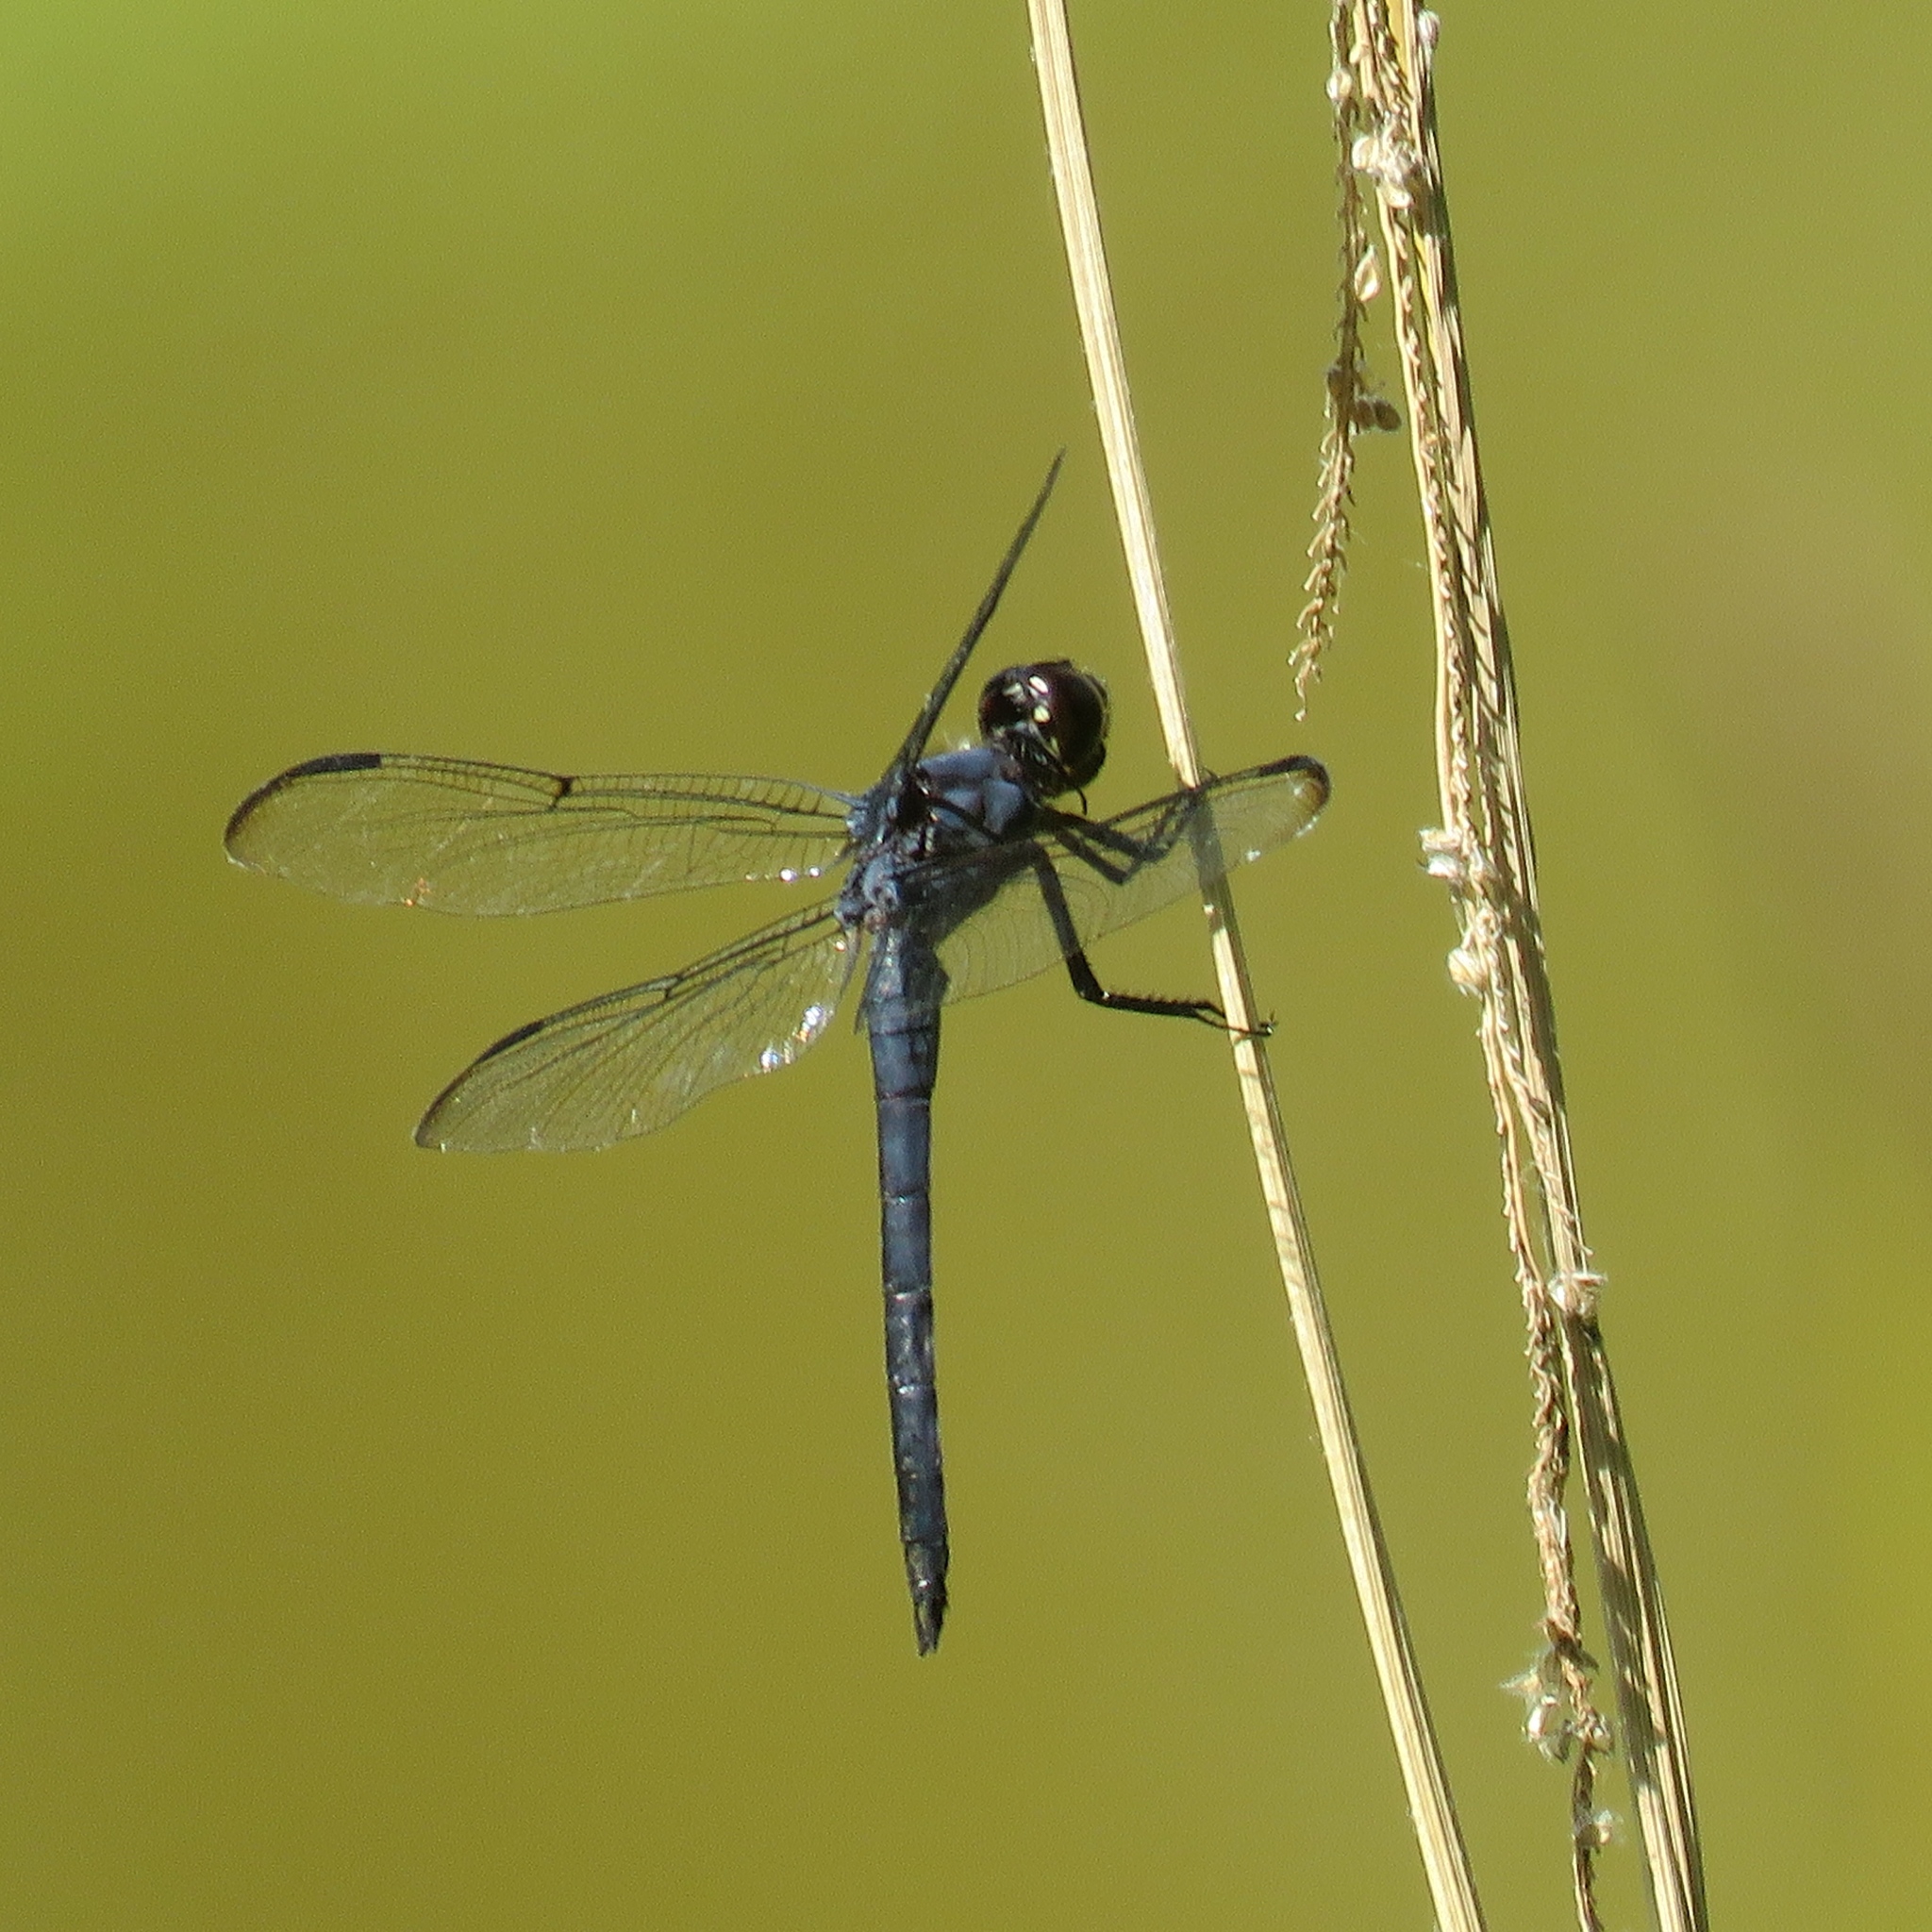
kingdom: Animalia
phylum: Arthropoda
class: Insecta
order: Odonata
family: Libellulidae
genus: Libellula
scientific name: Libellula incesta
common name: Slaty skimmer
